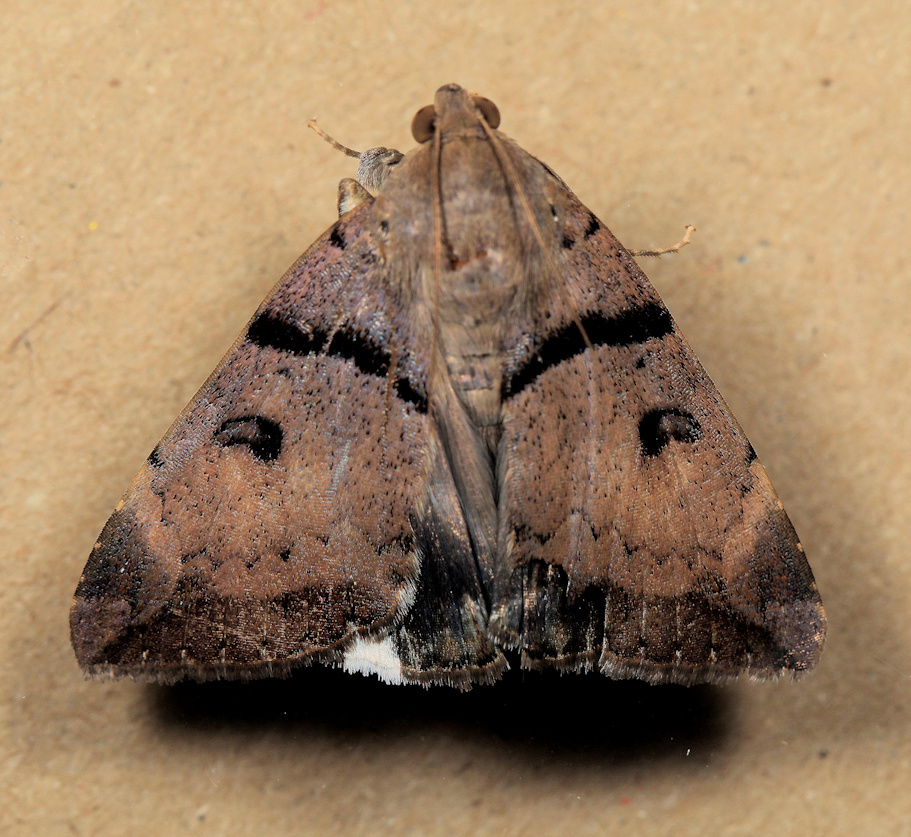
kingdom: Animalia
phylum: Arthropoda
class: Insecta
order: Lepidoptera
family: Erebidae
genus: Achaea
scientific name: Achaea lienardi
